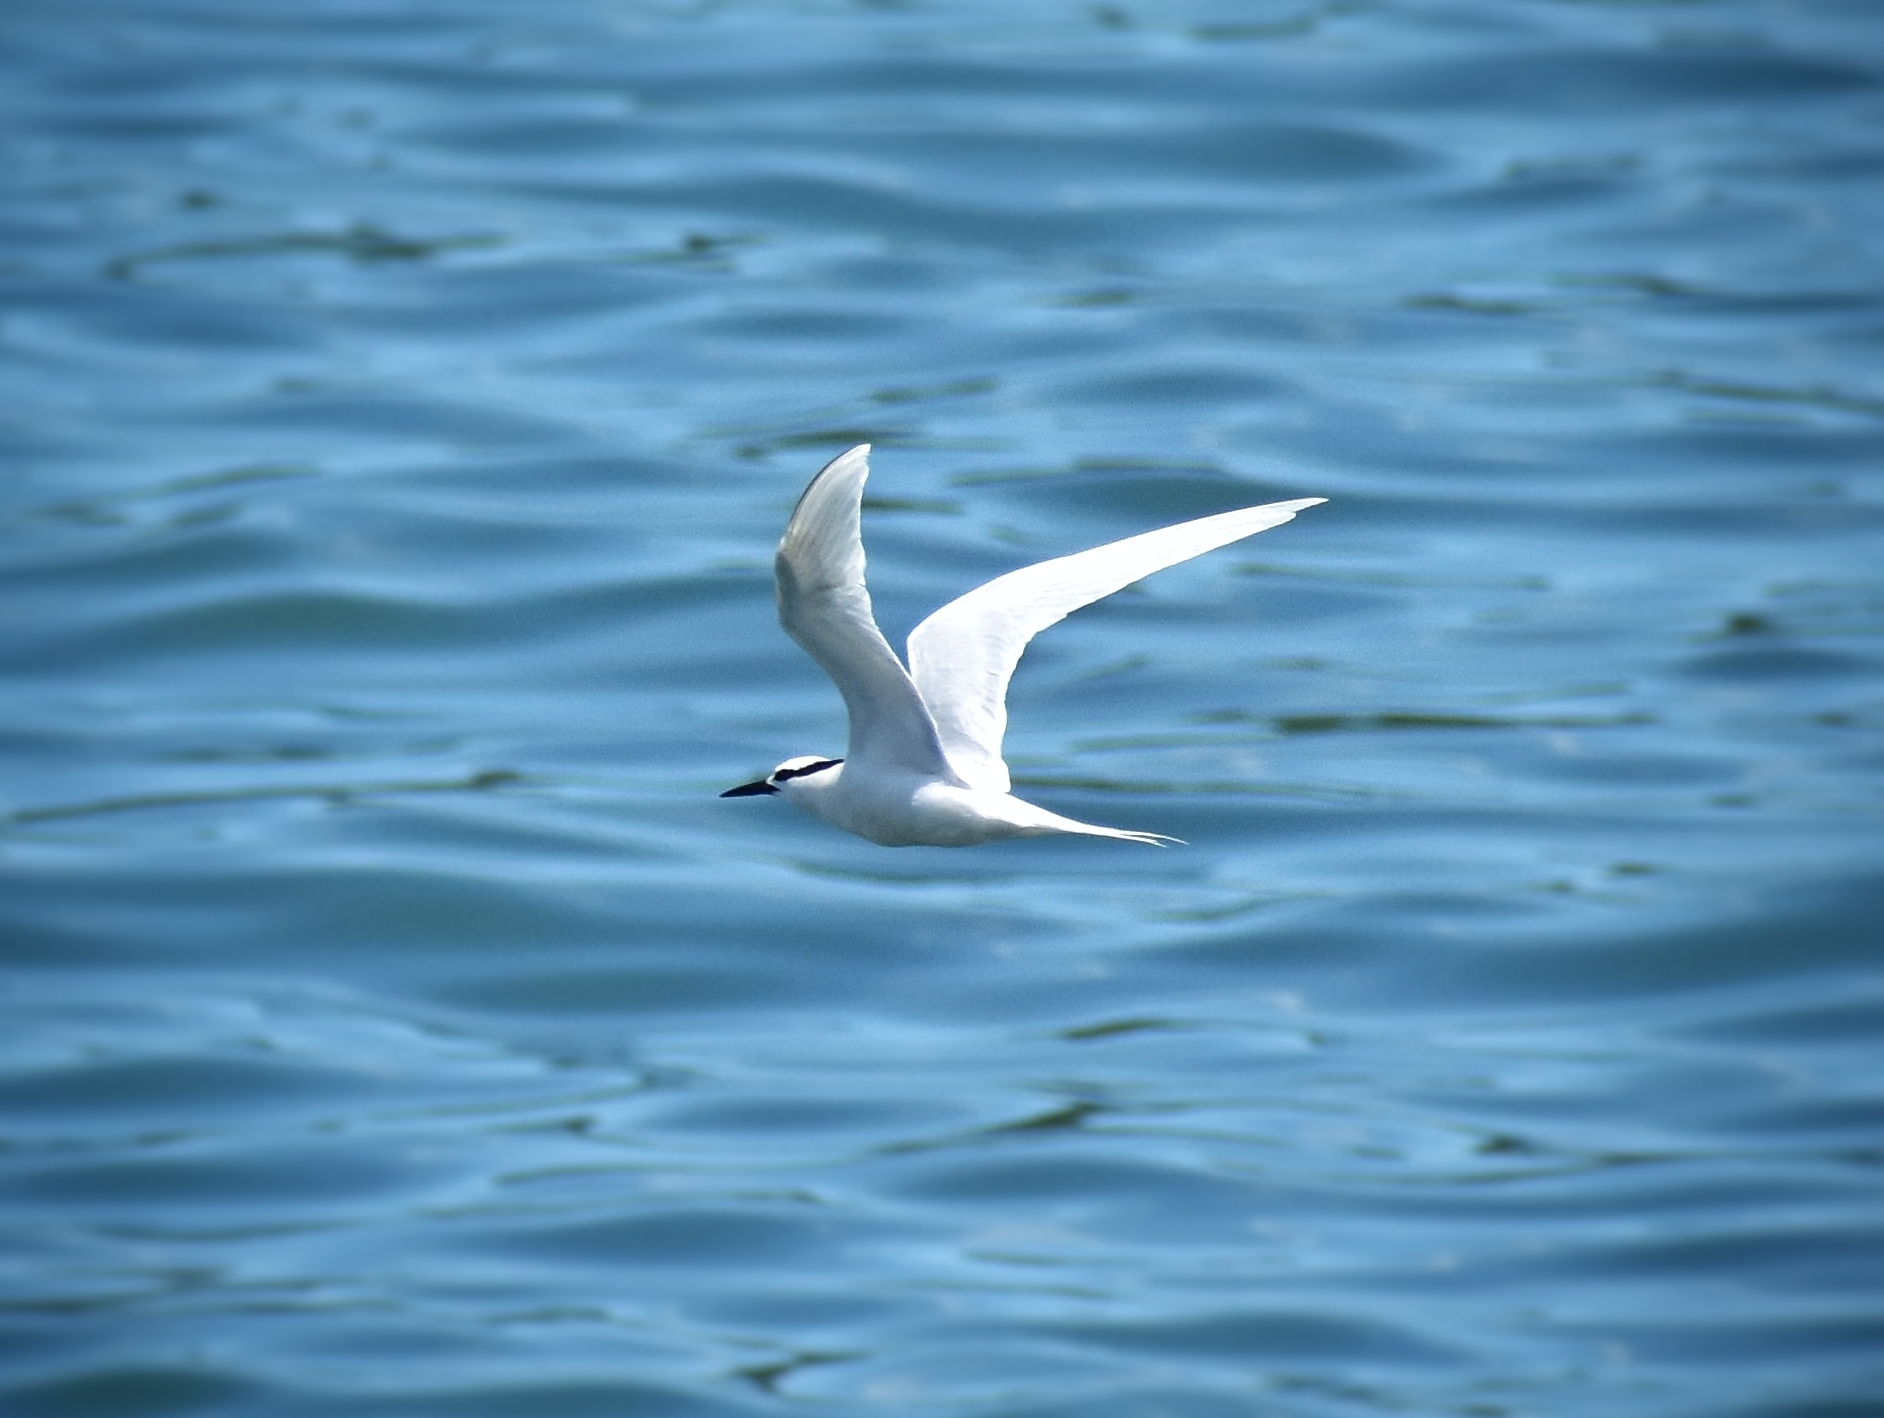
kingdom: Animalia
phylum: Chordata
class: Aves
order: Charadriiformes
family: Laridae
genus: Sterna
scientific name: Sterna sumatrana
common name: Black-naped tern
